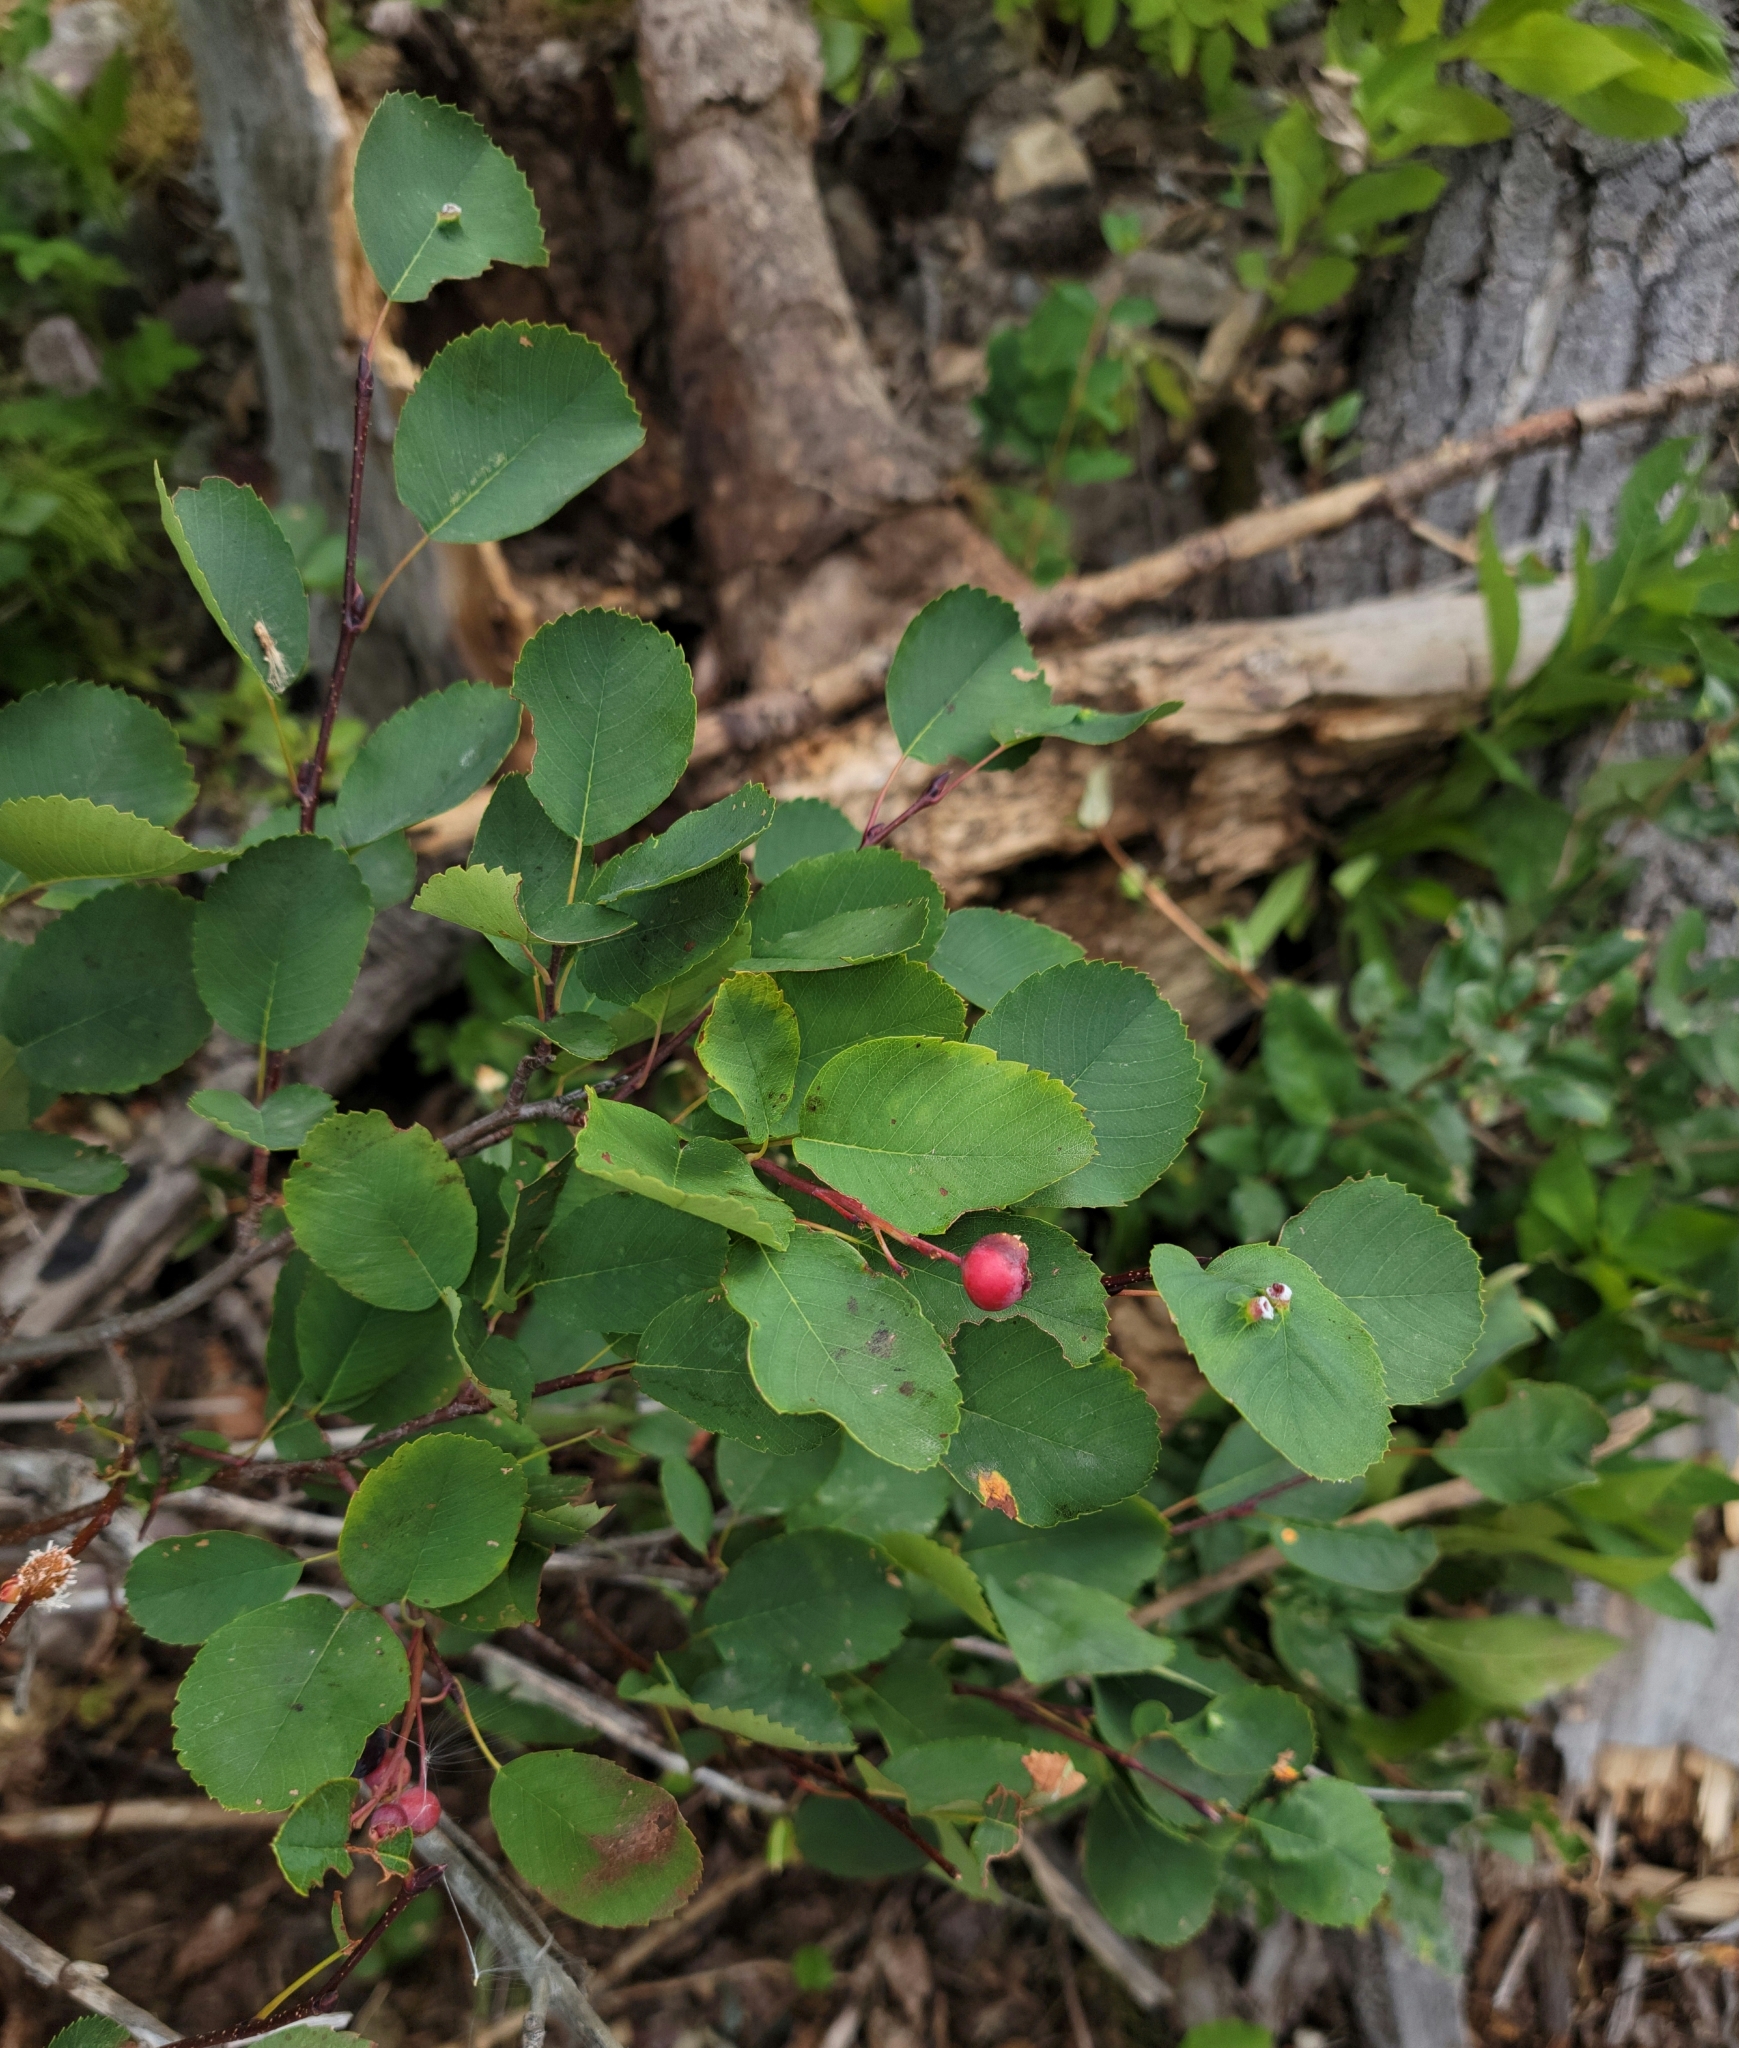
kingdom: Plantae
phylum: Tracheophyta
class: Magnoliopsida
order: Rosales
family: Rosaceae
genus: Amelanchier
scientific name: Amelanchier alnifolia
